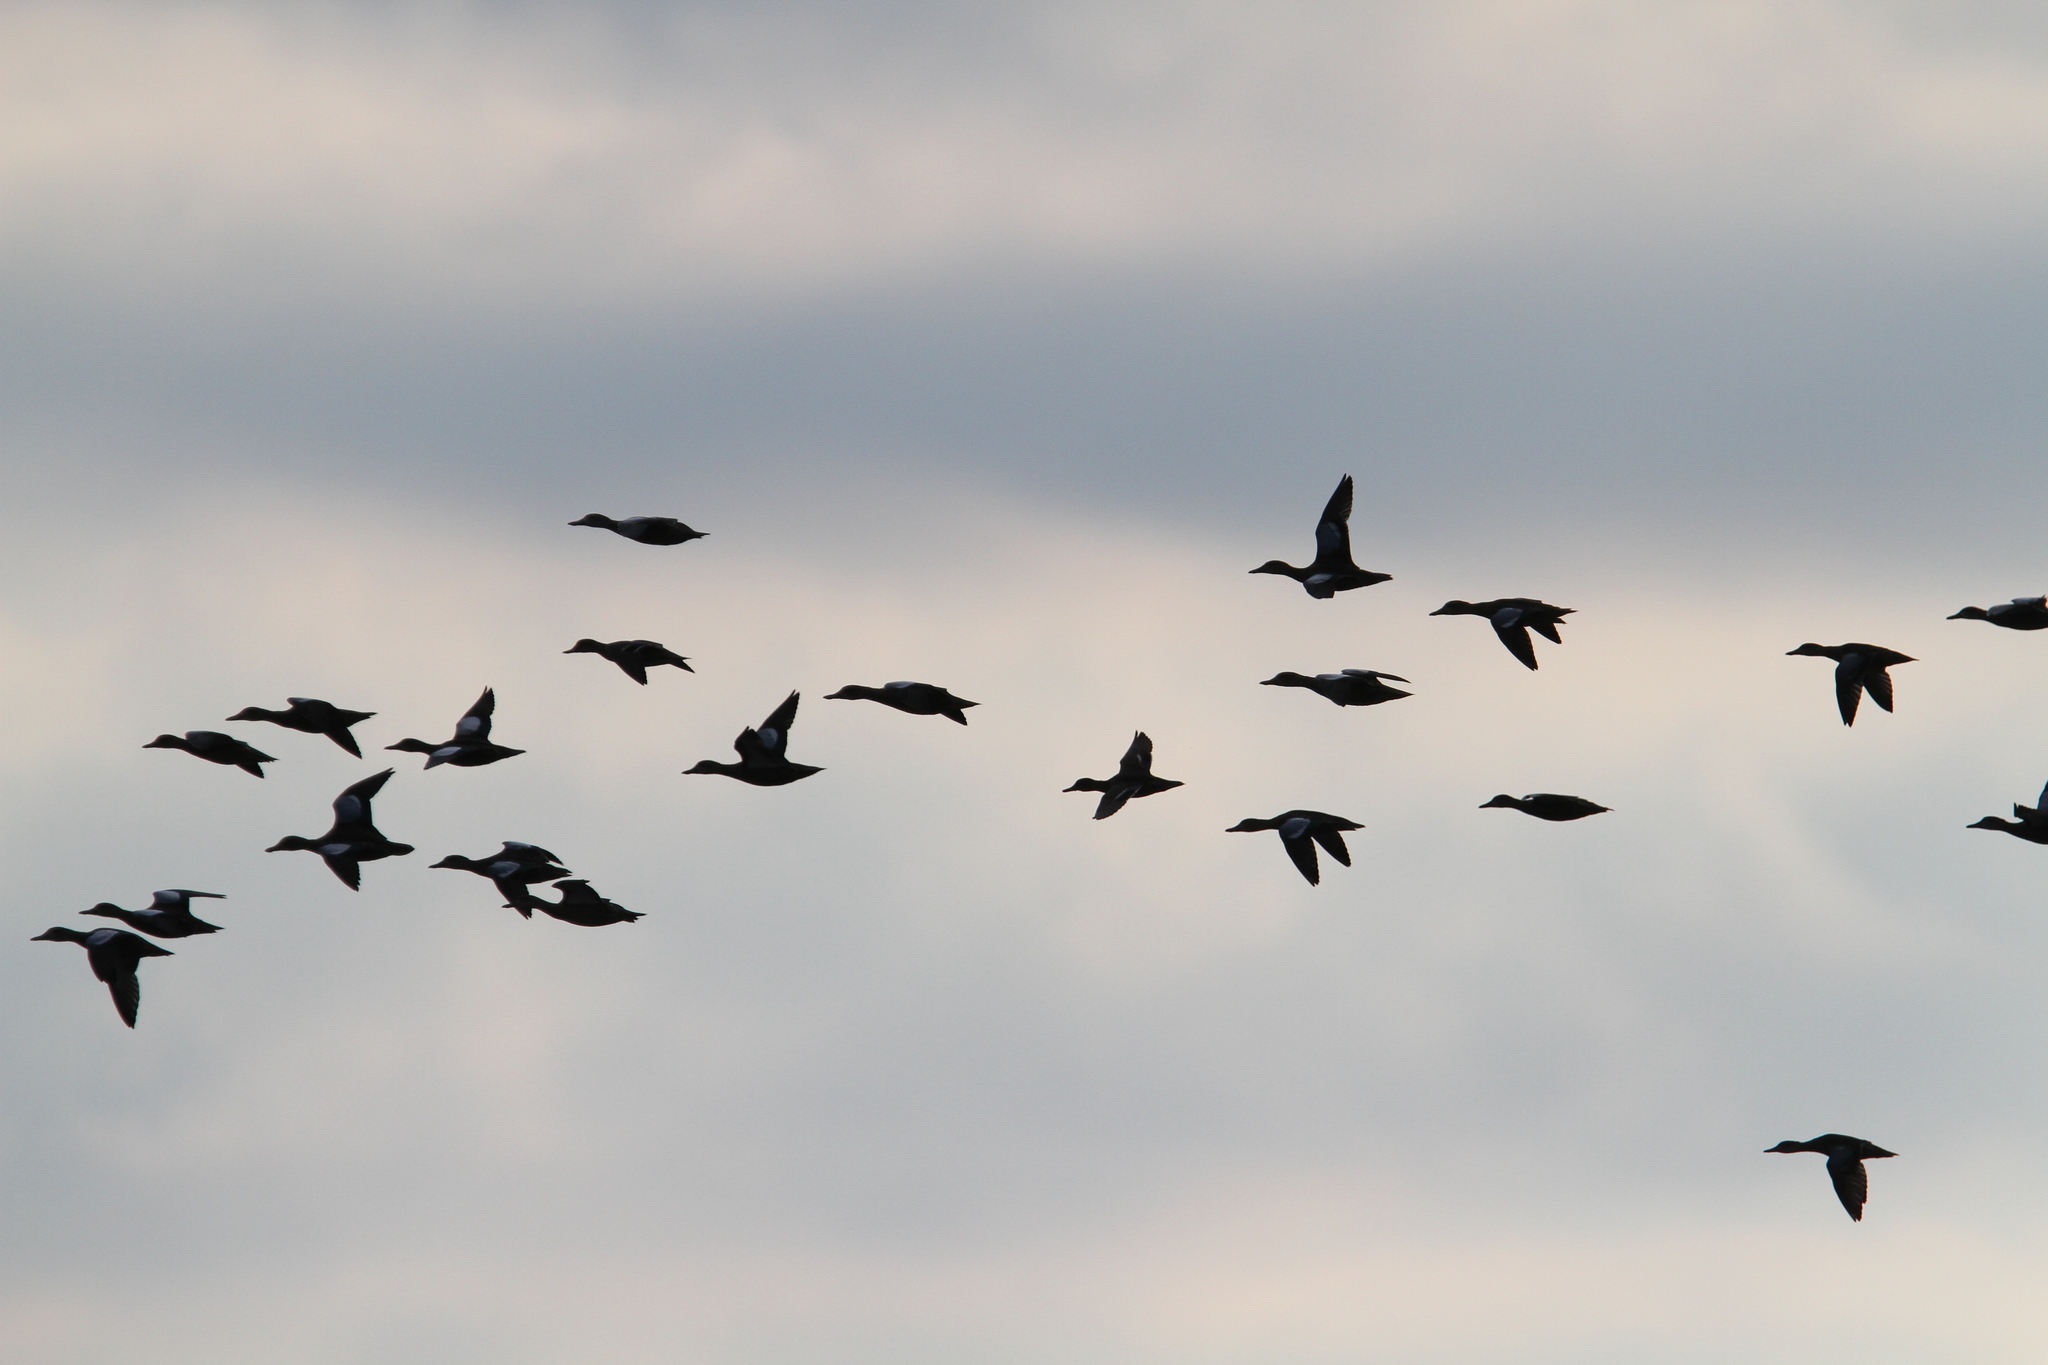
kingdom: Animalia
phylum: Chordata
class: Aves
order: Anseriformes
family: Anatidae
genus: Spatula
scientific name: Spatula discors
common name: Blue-winged teal
